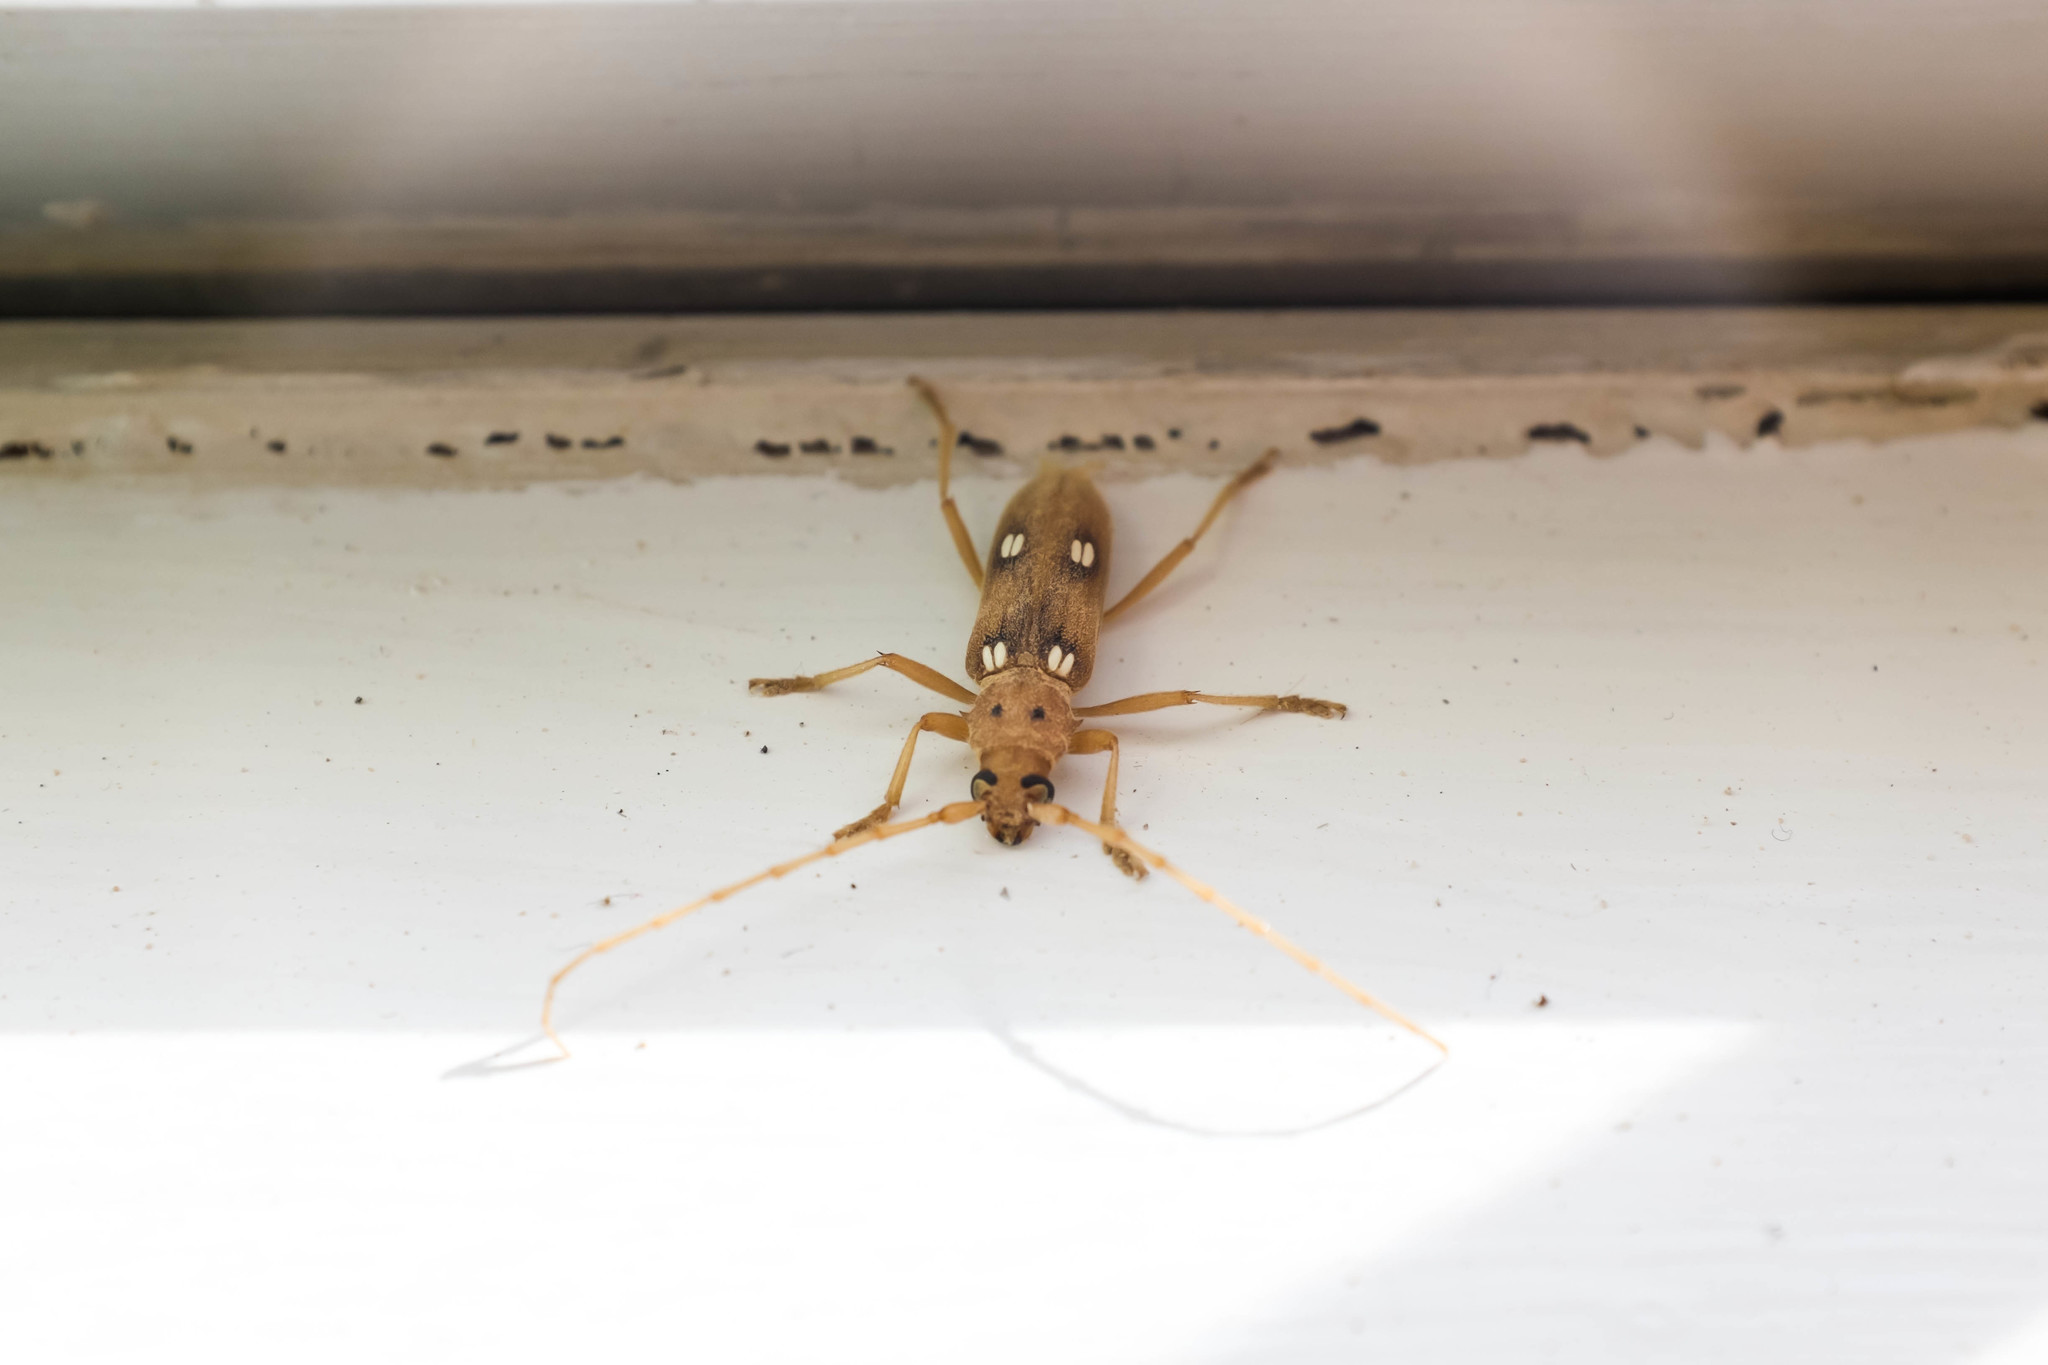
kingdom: Animalia
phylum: Arthropoda
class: Insecta
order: Coleoptera
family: Cerambycidae
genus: Eburia
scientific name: Eburia quadrigeminata
